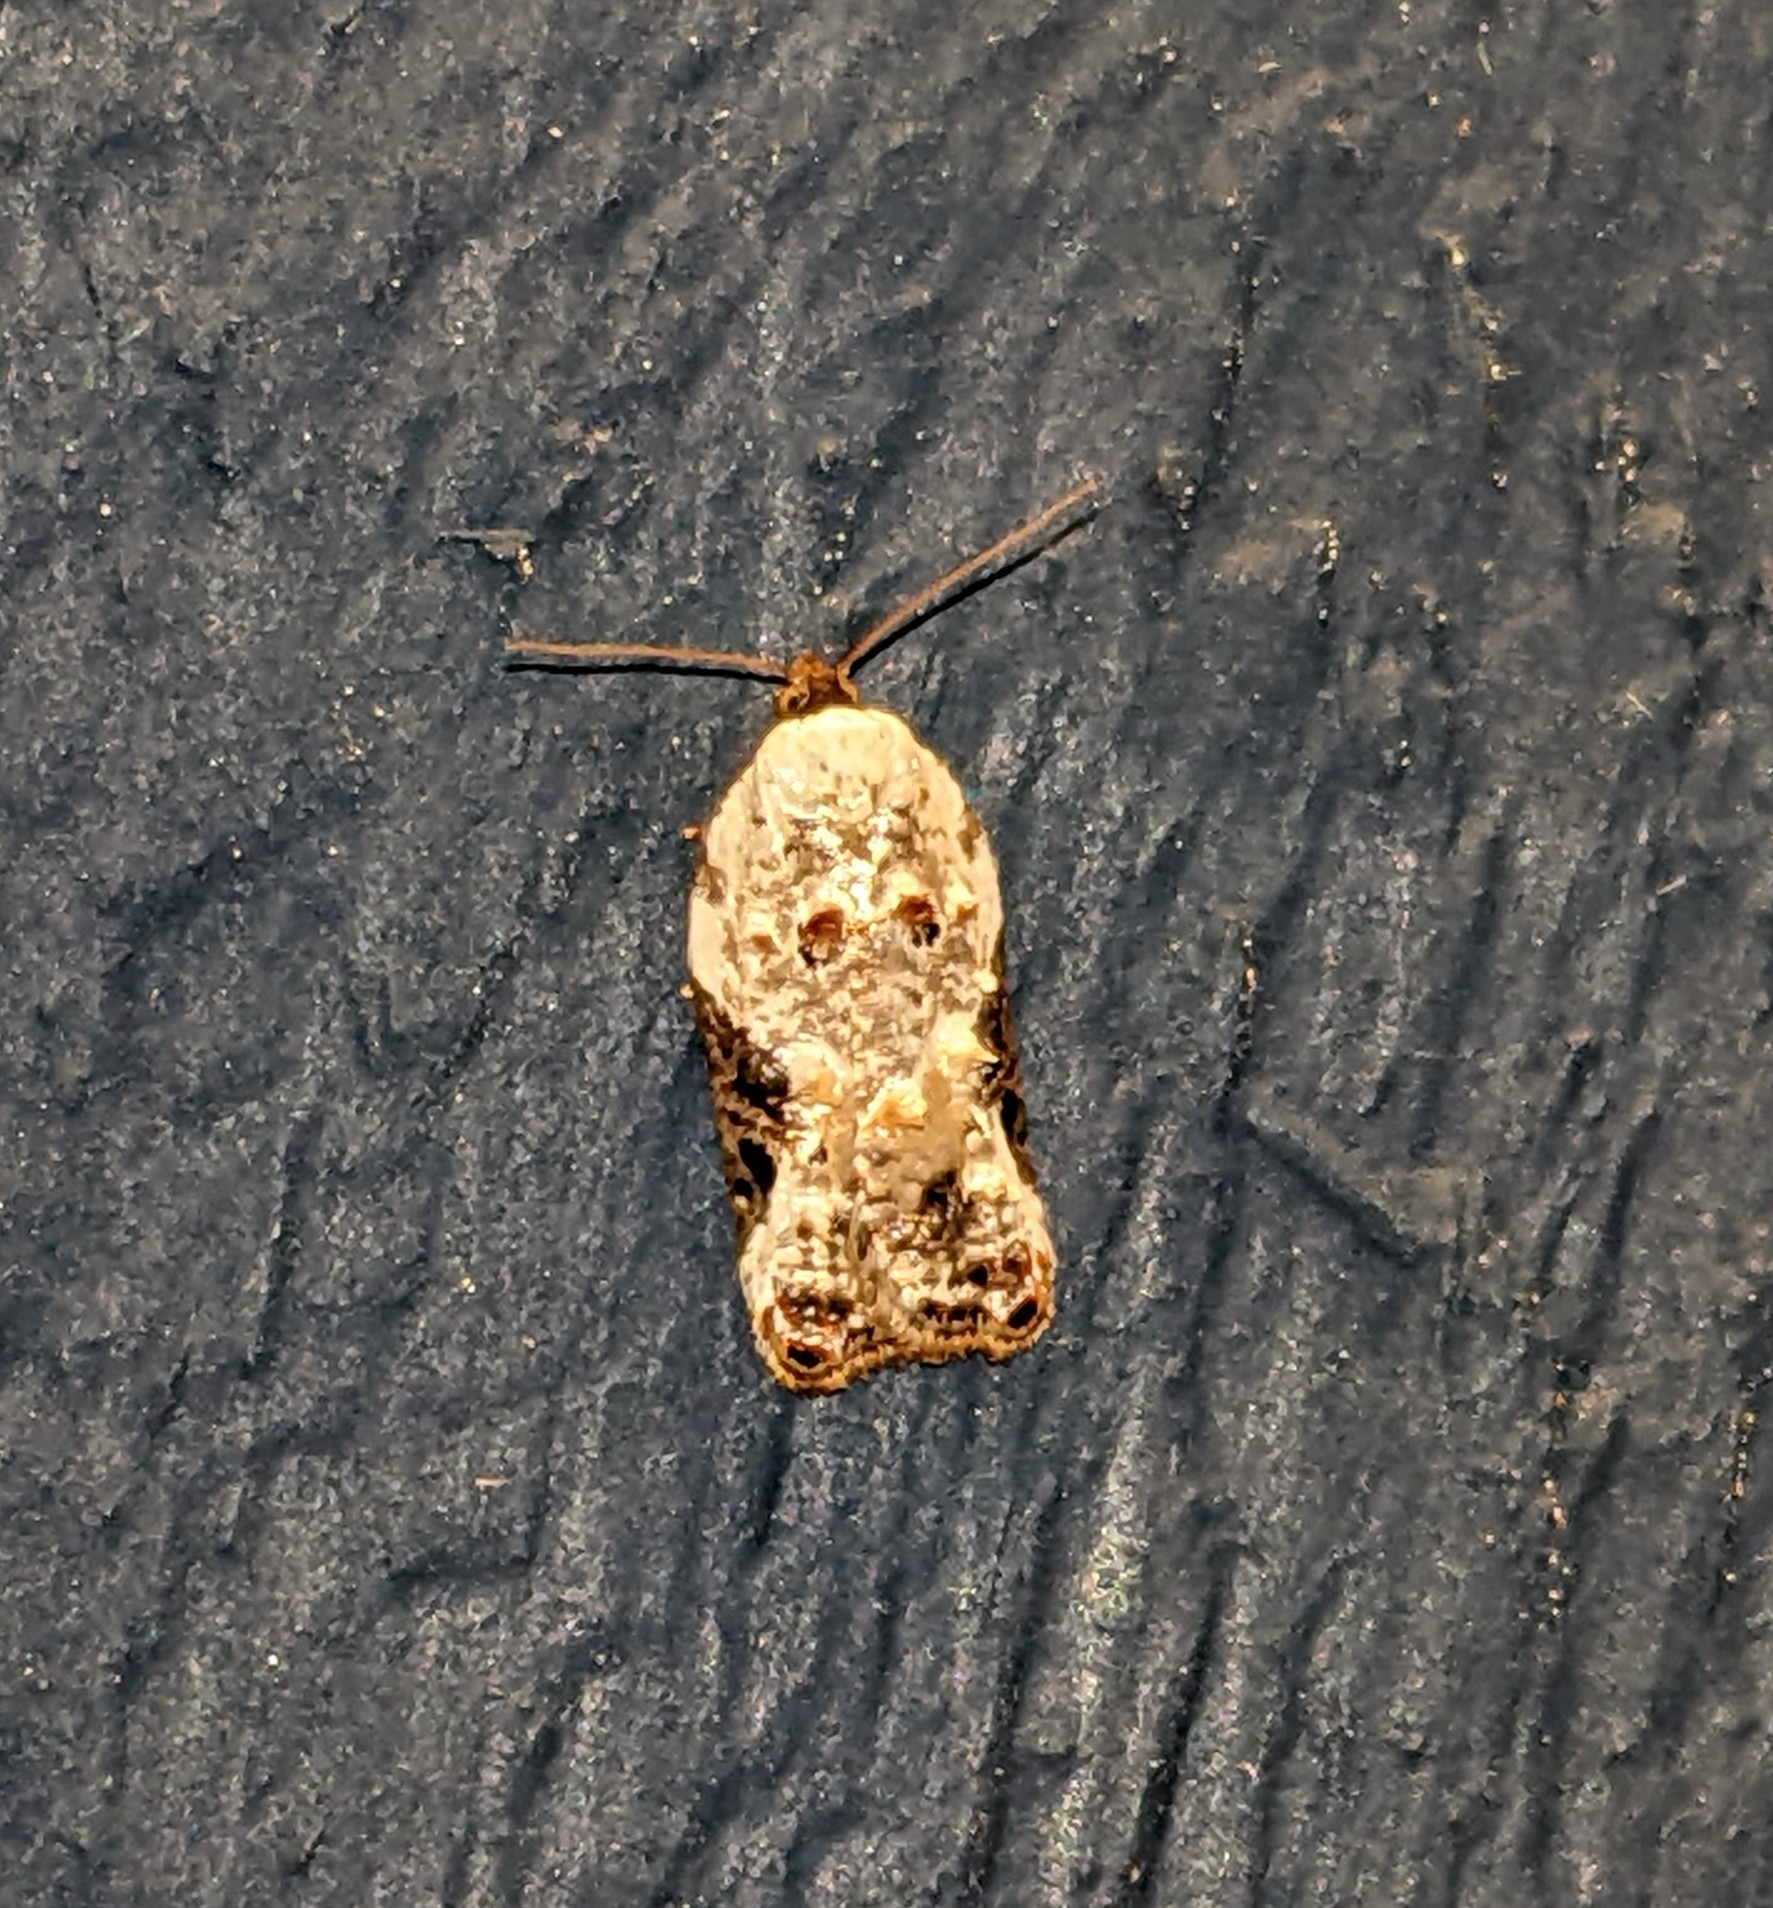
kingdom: Animalia
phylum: Arthropoda
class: Insecta
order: Lepidoptera
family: Tortricidae
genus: Acleris
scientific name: Acleris nivisellana
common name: Snowy-shouldered acleris moth
